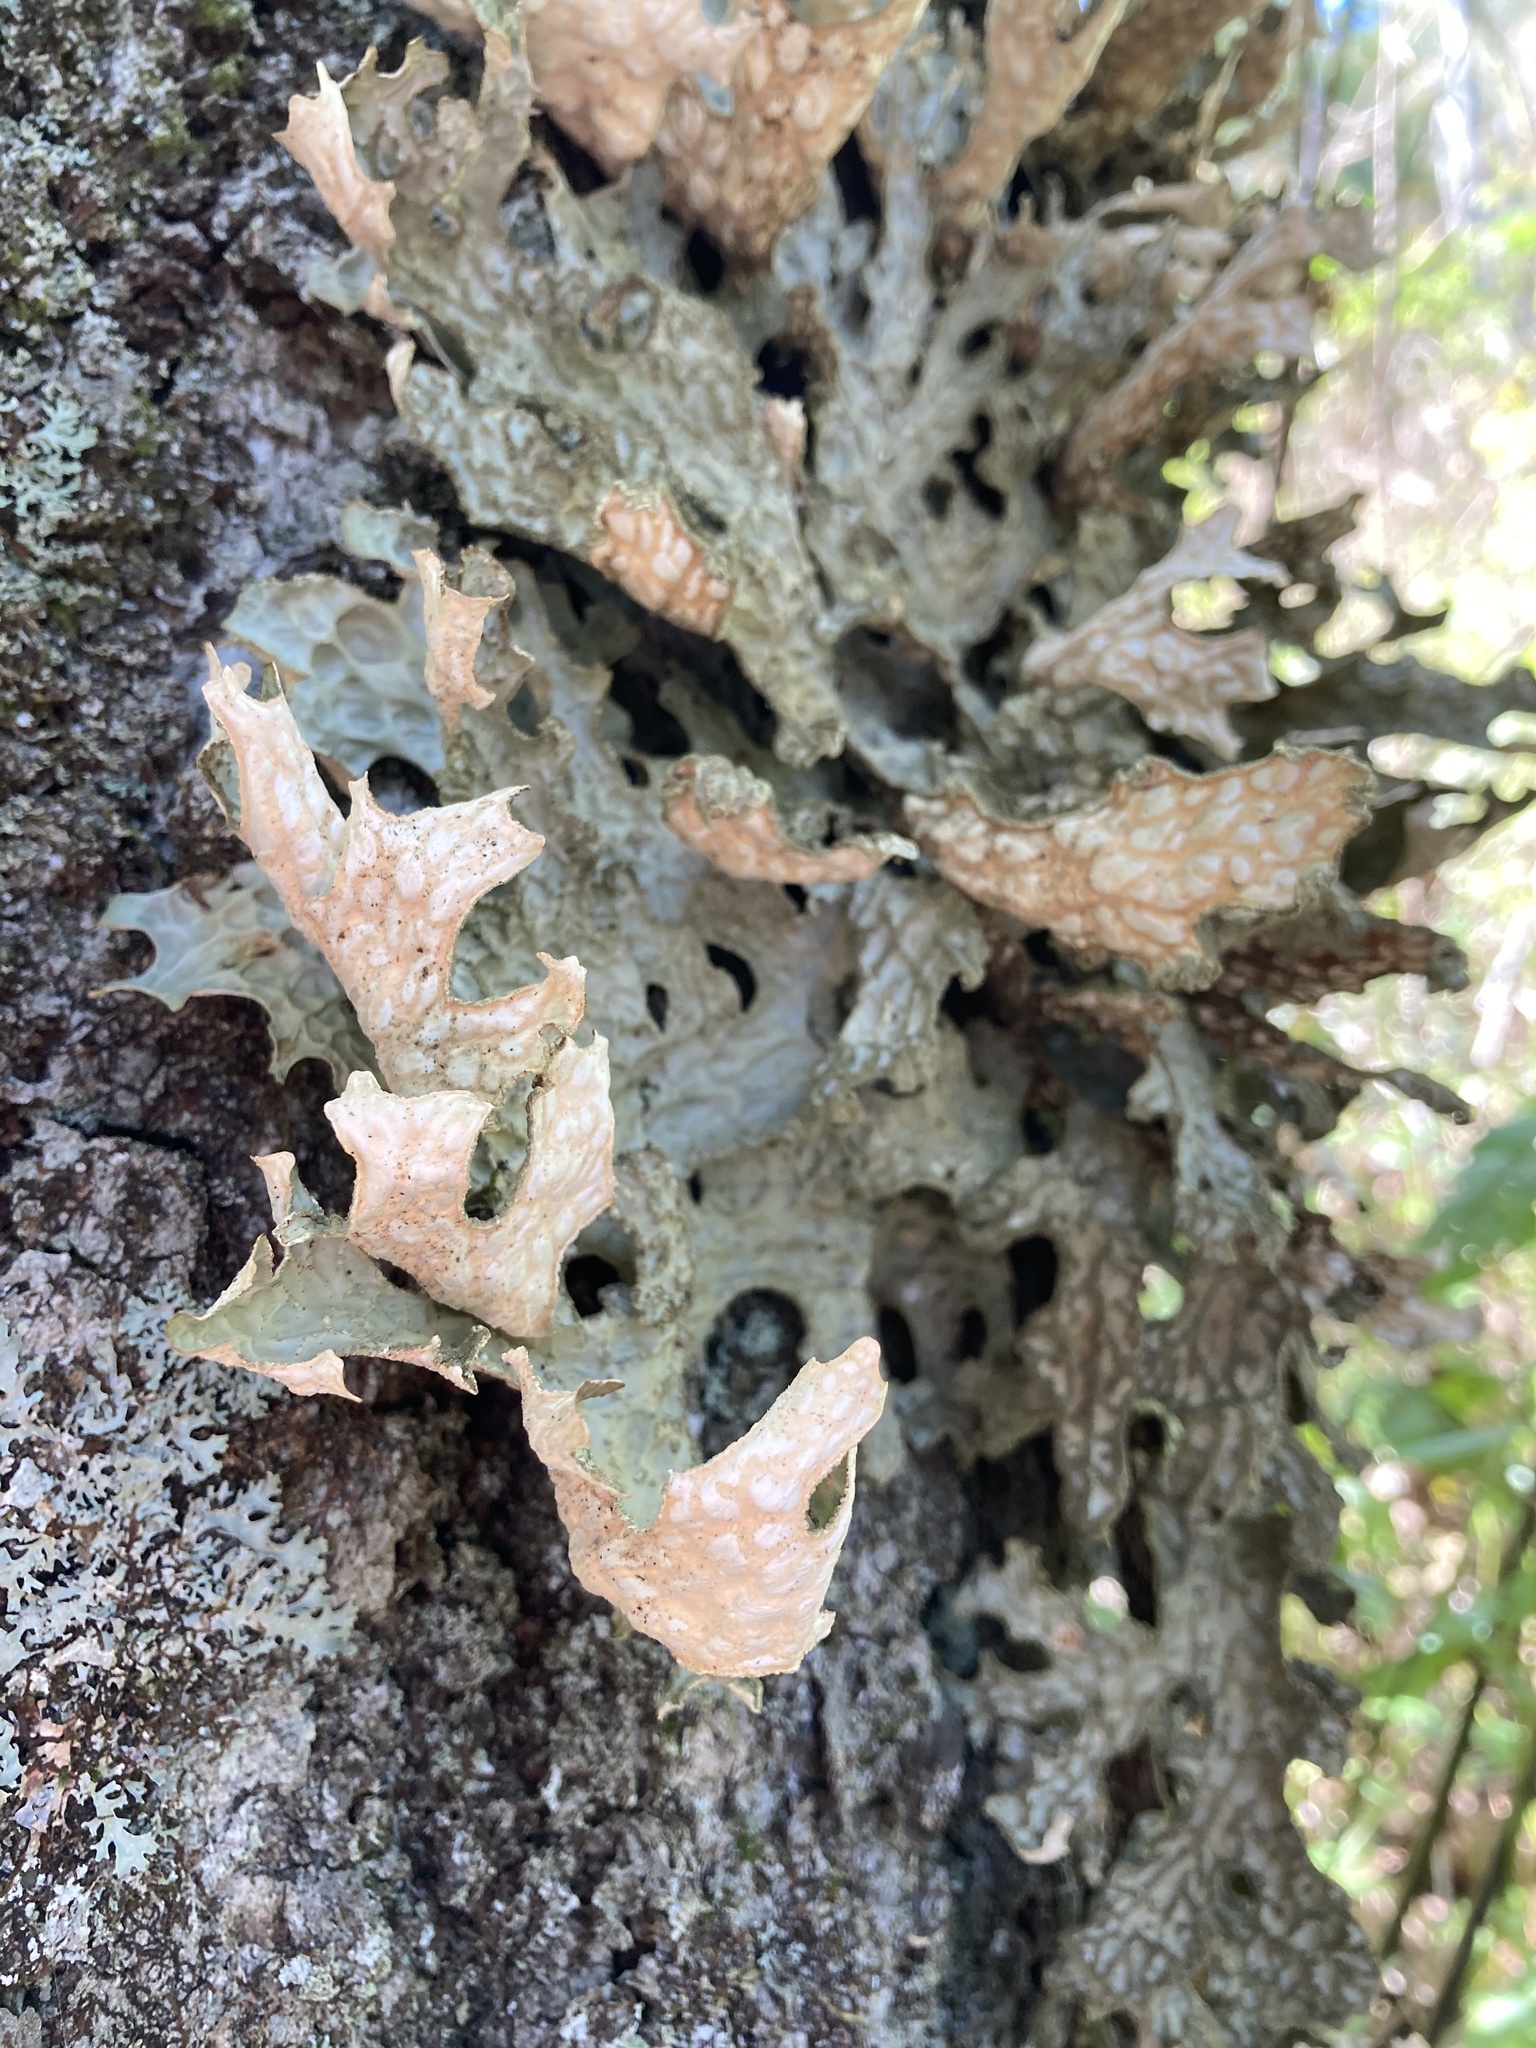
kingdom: Fungi
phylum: Ascomycota
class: Lecanoromycetes
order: Peltigerales
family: Lobariaceae
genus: Lobaria
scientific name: Lobaria pulmonaria
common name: Lungwort
